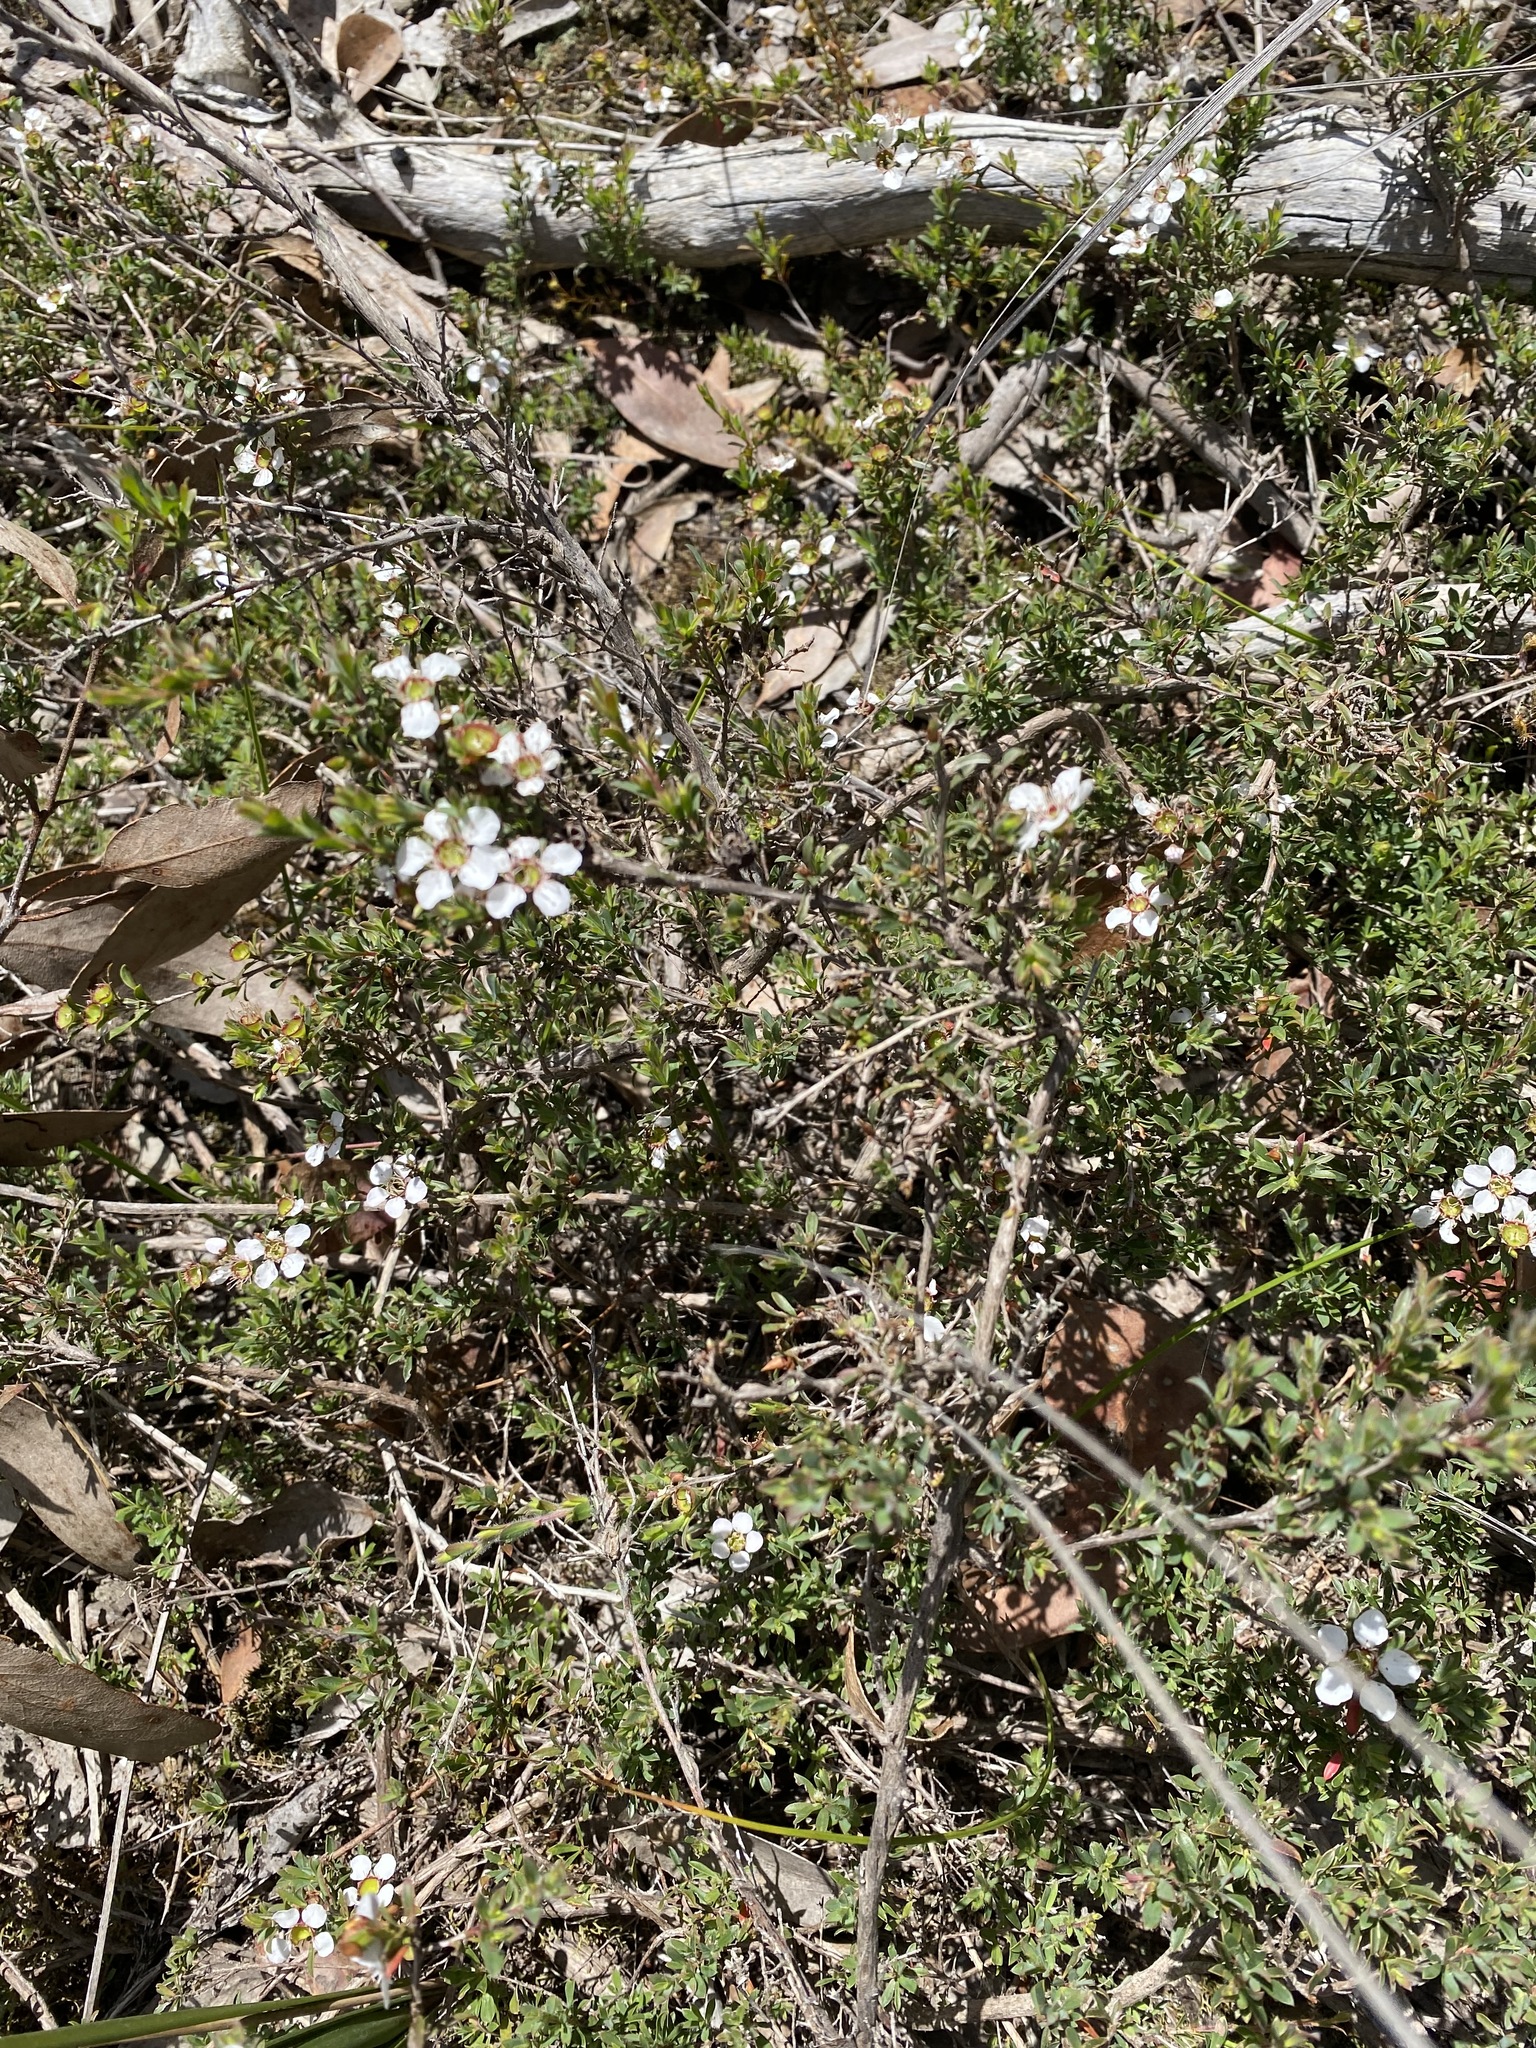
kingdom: Plantae
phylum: Tracheophyta
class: Magnoliopsida
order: Myrtales
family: Myrtaceae
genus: Leptospermum
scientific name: Leptospermum myrsinoides
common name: Heath teatree
